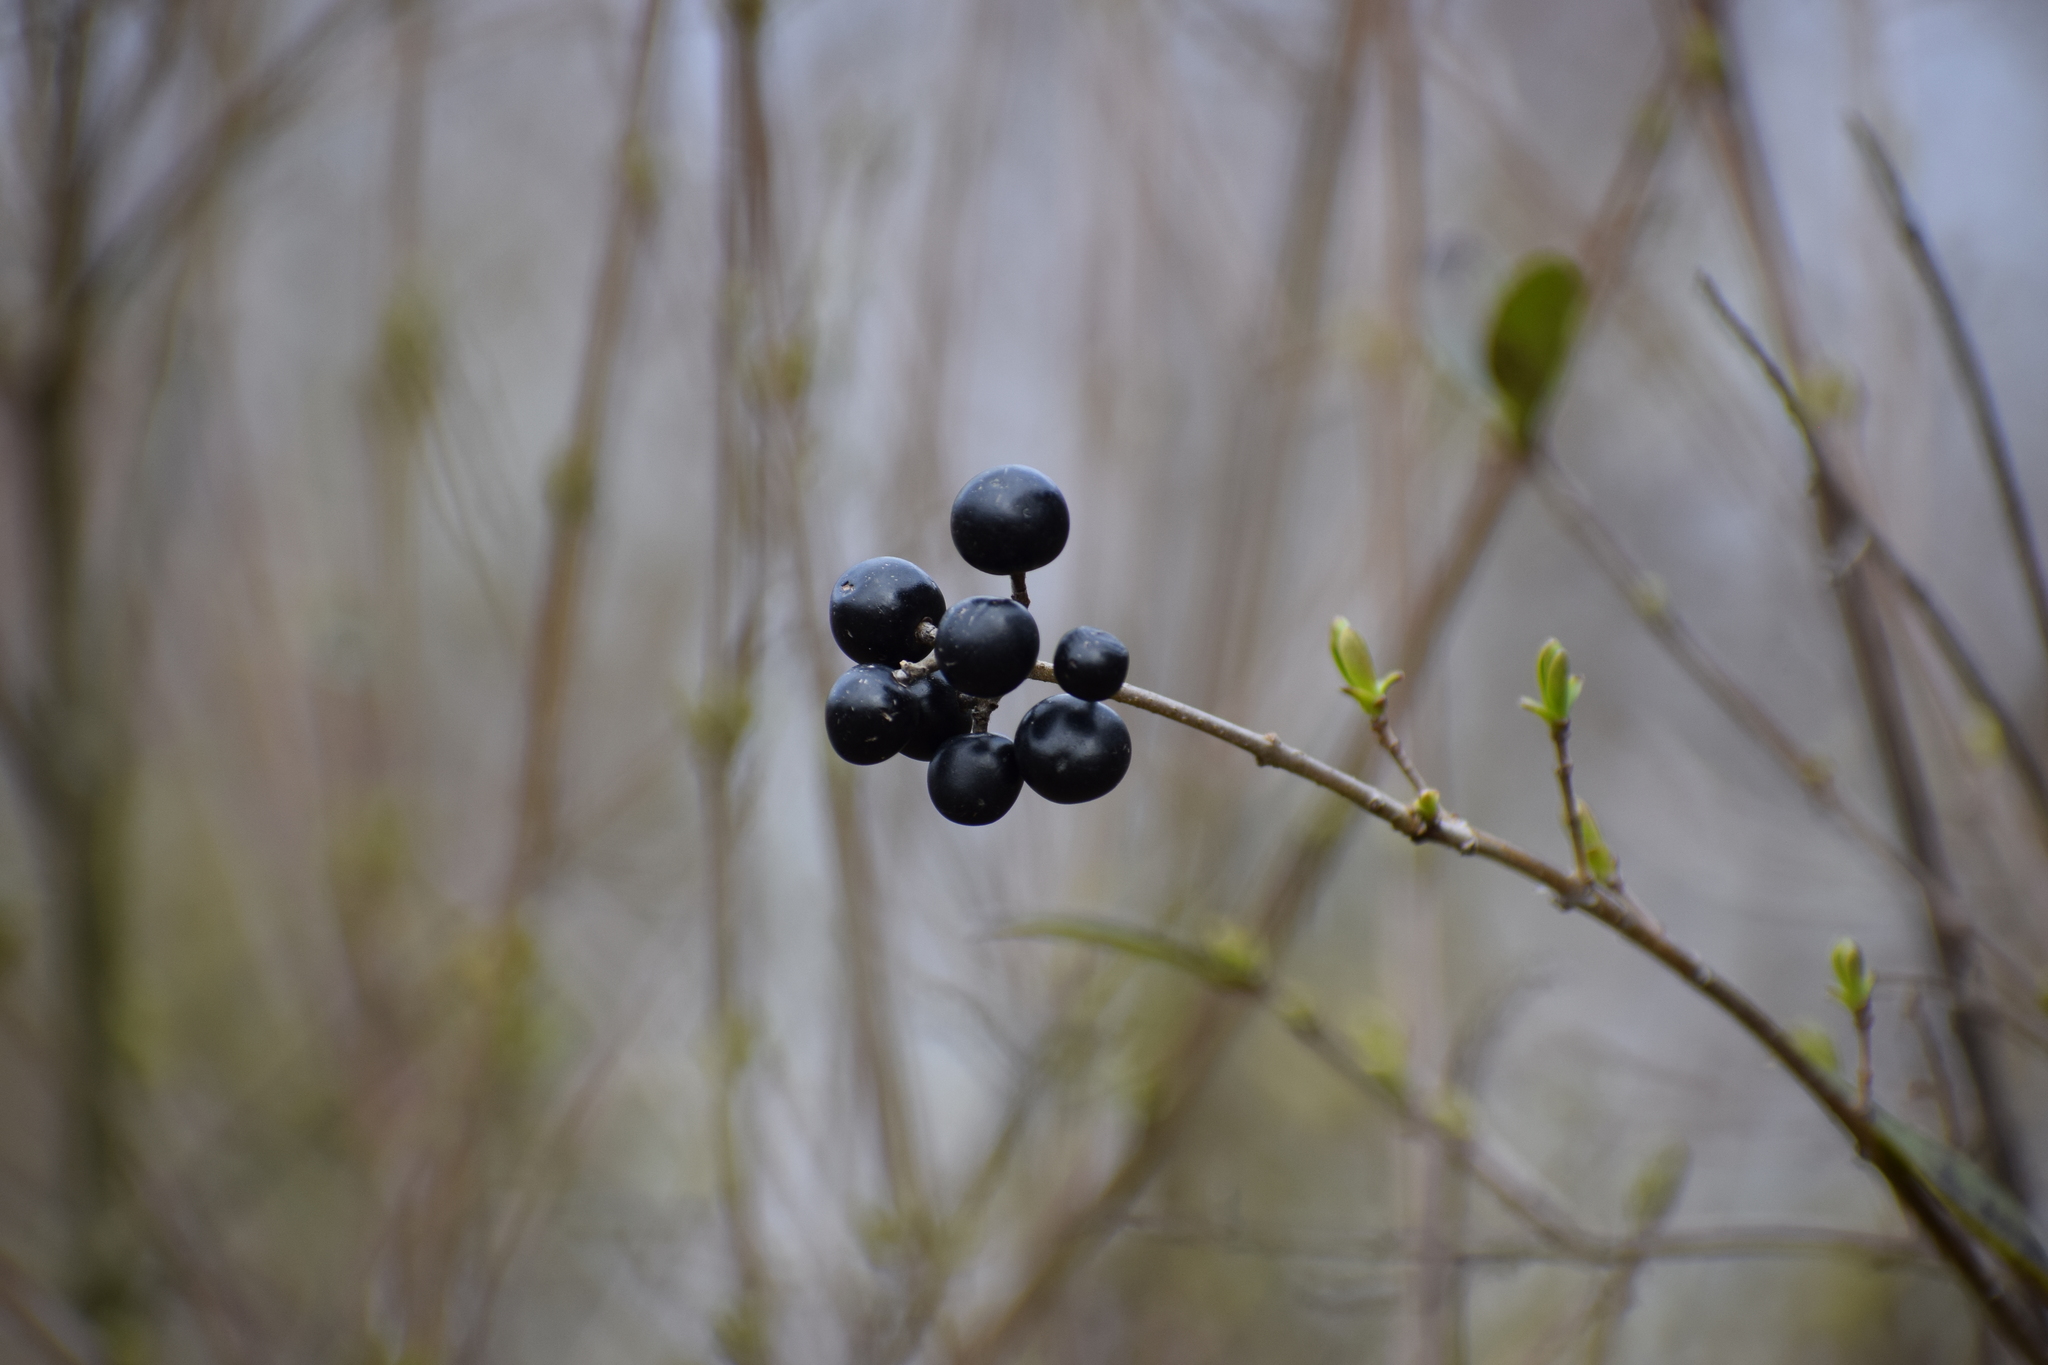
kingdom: Plantae
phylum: Tracheophyta
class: Magnoliopsida
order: Lamiales
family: Oleaceae
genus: Ligustrum
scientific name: Ligustrum vulgare
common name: Wild privet
